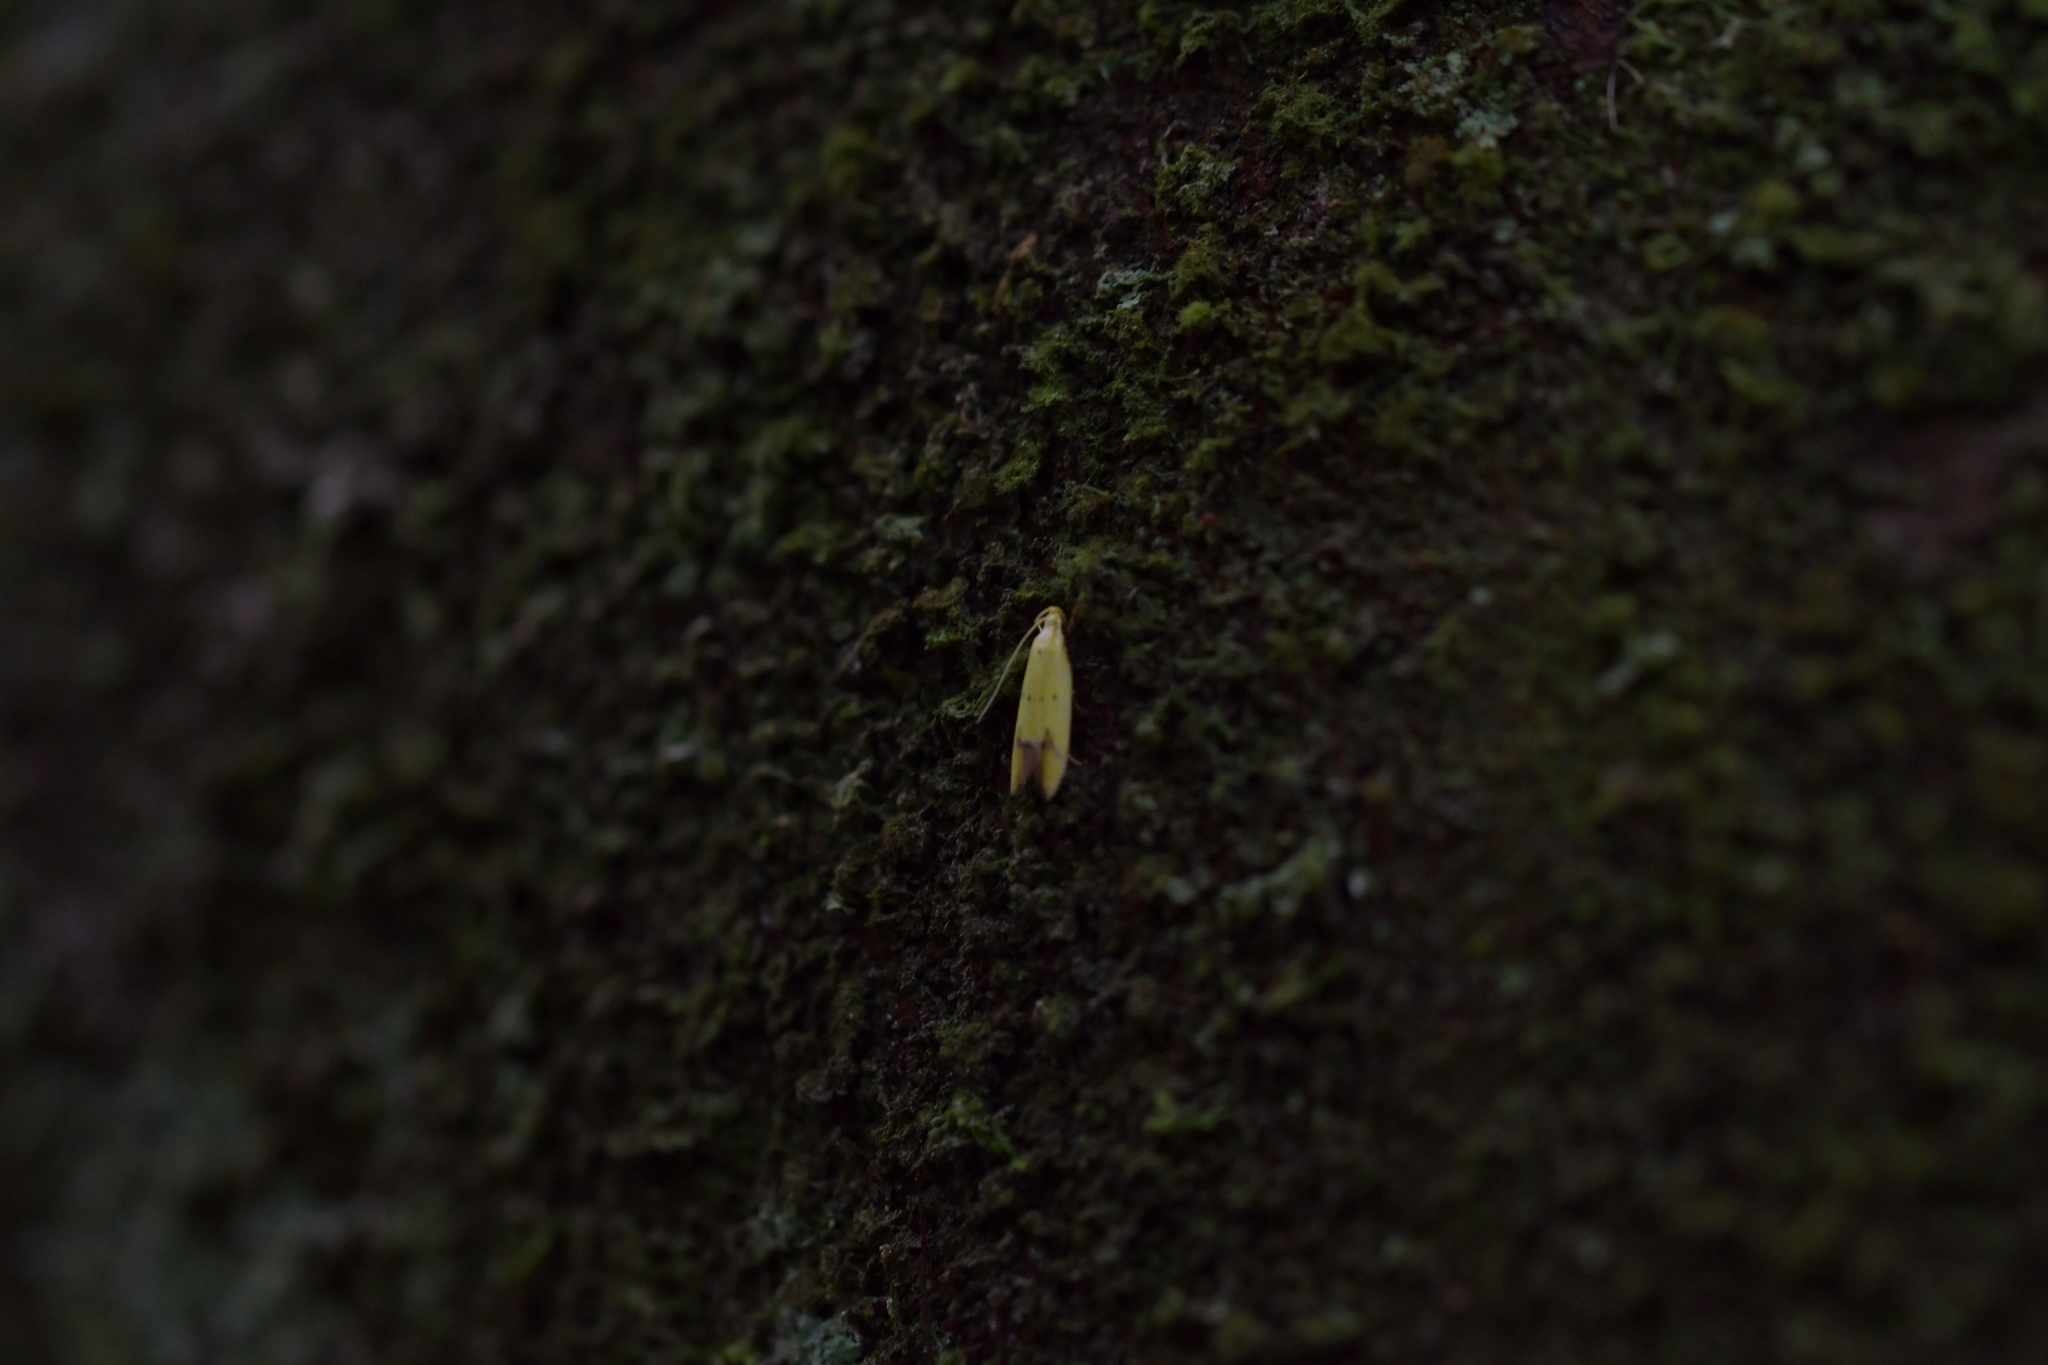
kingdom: Animalia
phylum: Arthropoda
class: Insecta
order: Lepidoptera
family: Oecophoridae
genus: Gymnobathra
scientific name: Gymnobathra flavidella
